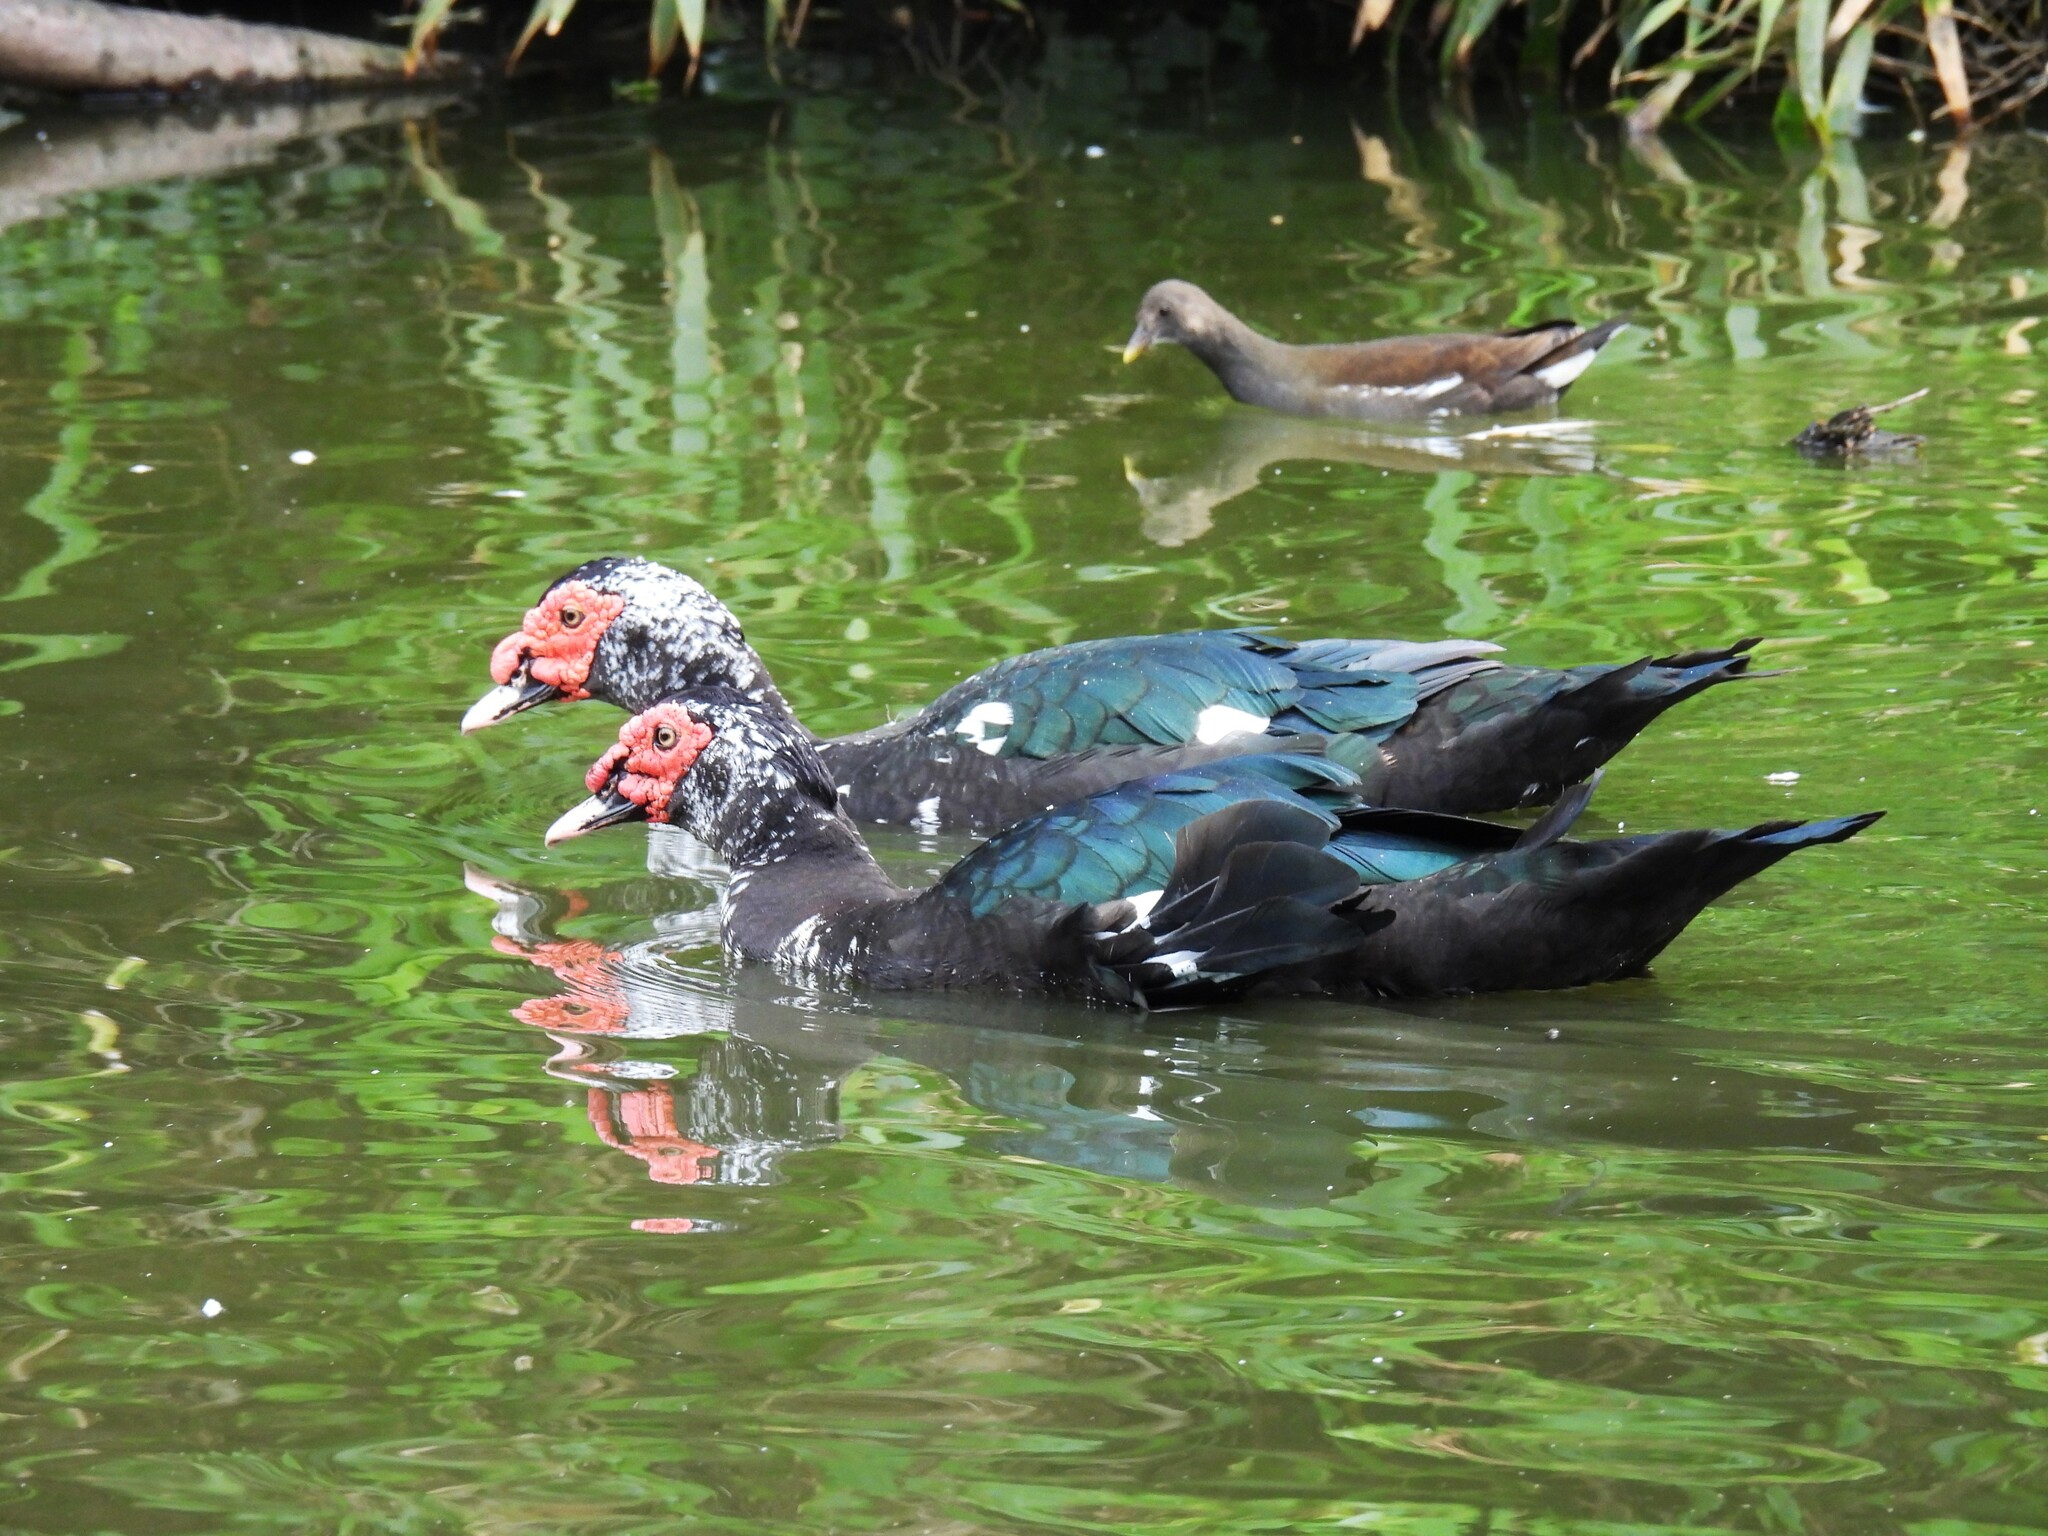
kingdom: Animalia
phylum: Chordata
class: Aves
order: Anseriformes
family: Anatidae
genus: Cairina
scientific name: Cairina moschata
